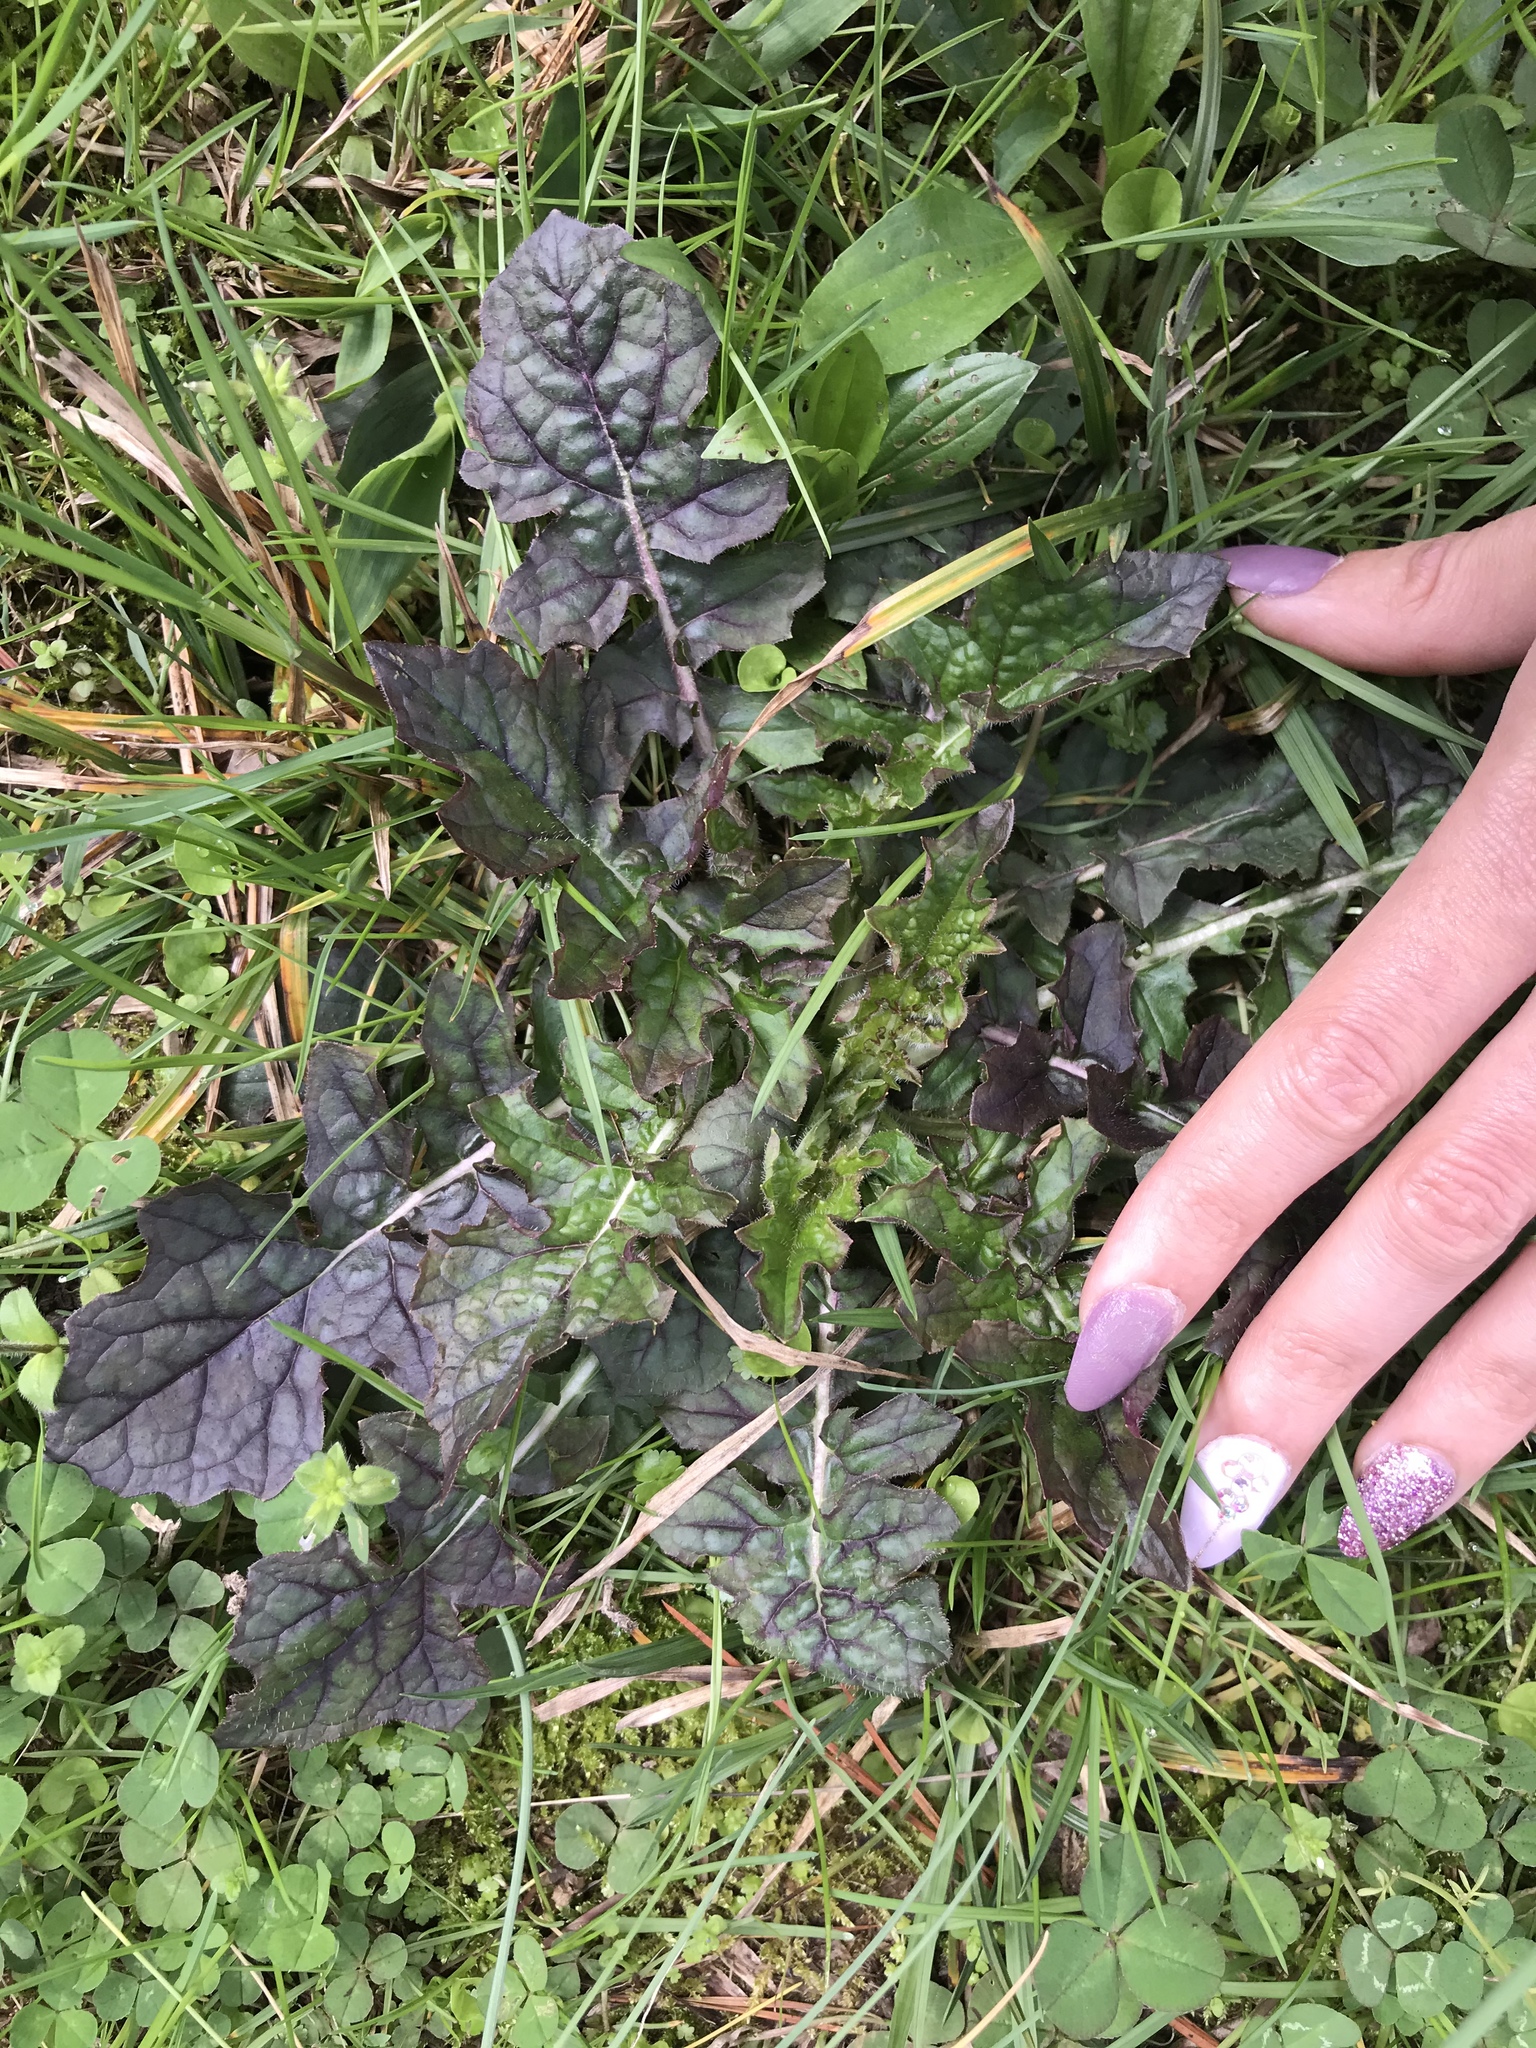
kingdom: Plantae
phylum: Tracheophyta
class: Magnoliopsida
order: Lamiales
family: Lamiaceae
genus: Salvia
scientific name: Salvia lyrata
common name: Cancerweed
